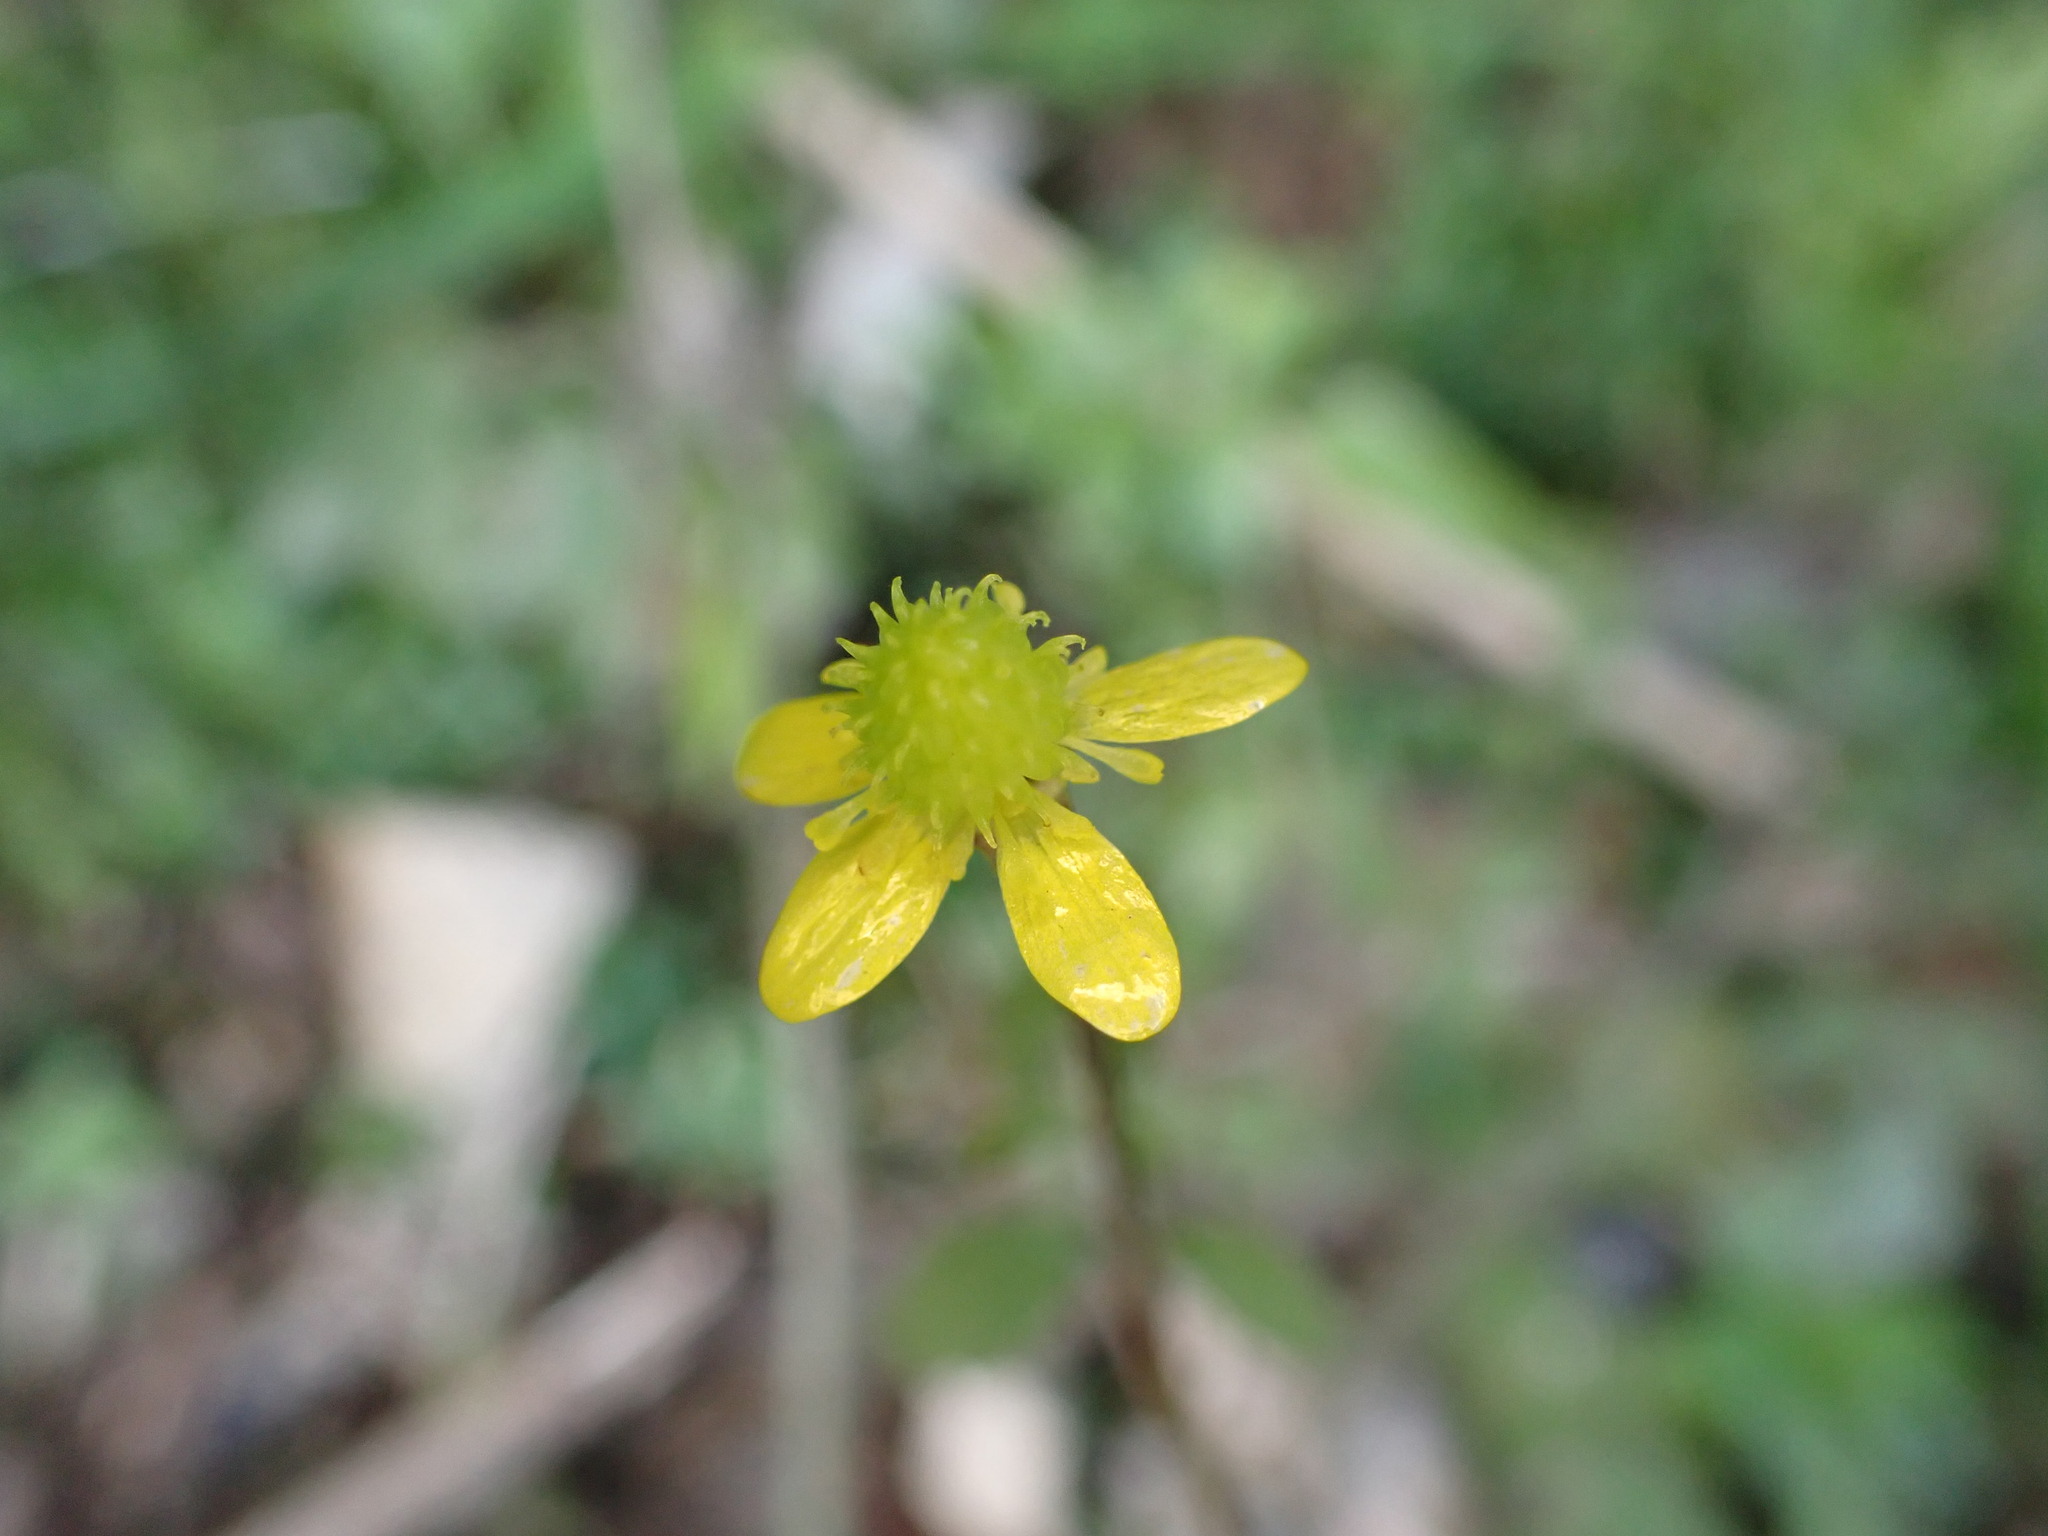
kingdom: Plantae
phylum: Tracheophyta
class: Magnoliopsida
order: Ranunculales
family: Ranunculaceae
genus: Ranunculus
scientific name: Ranunculus reflexus
